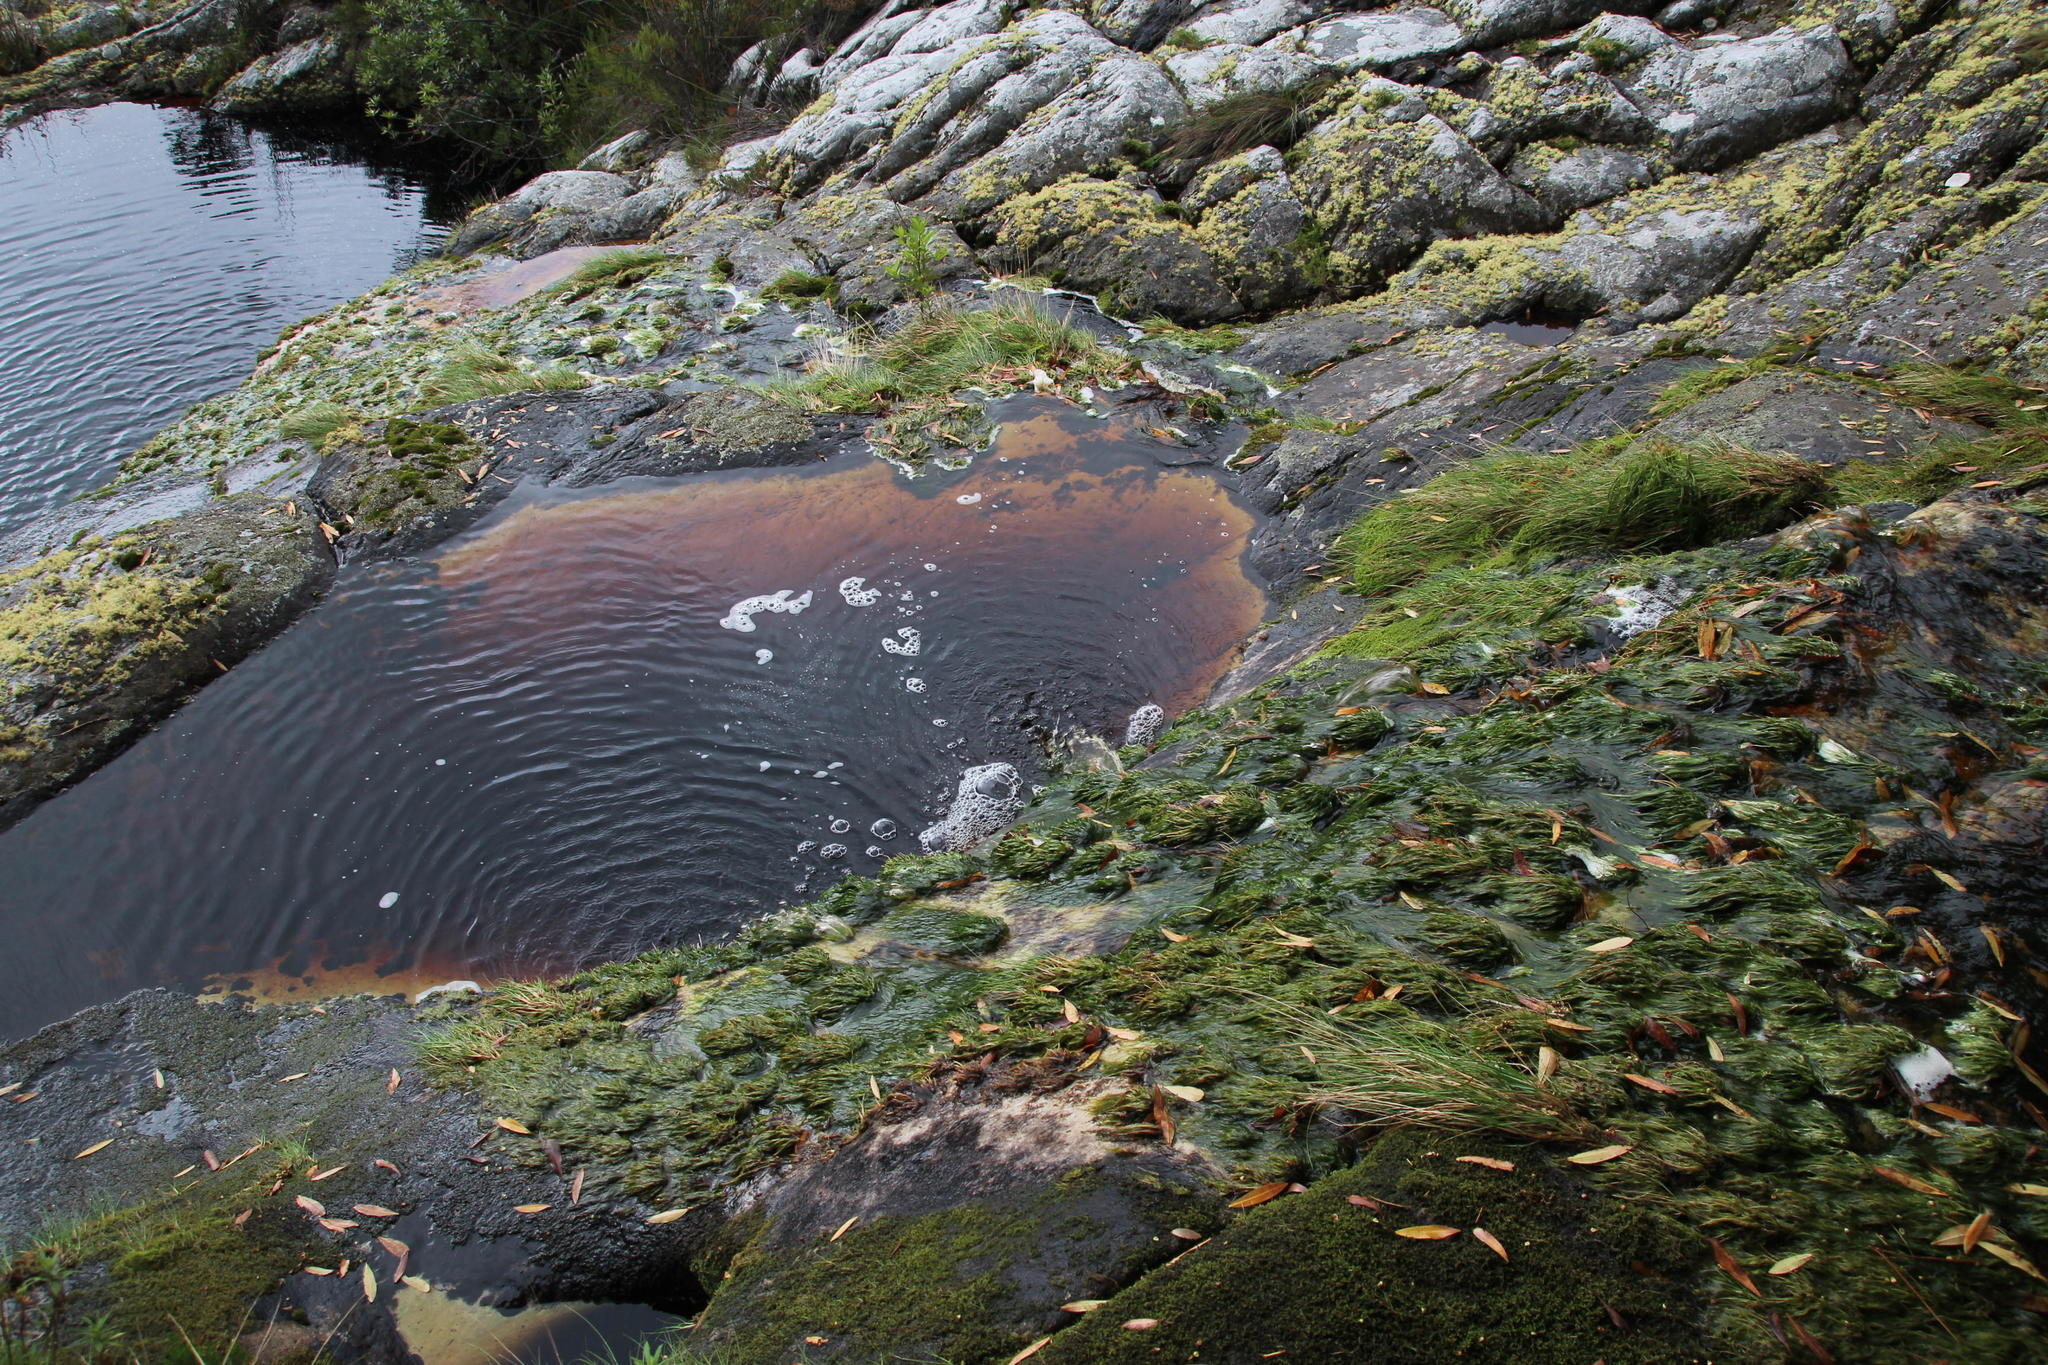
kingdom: Plantae
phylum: Tracheophyta
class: Liliopsida
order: Poales
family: Cyperaceae
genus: Isolepis
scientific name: Isolepis digitata
